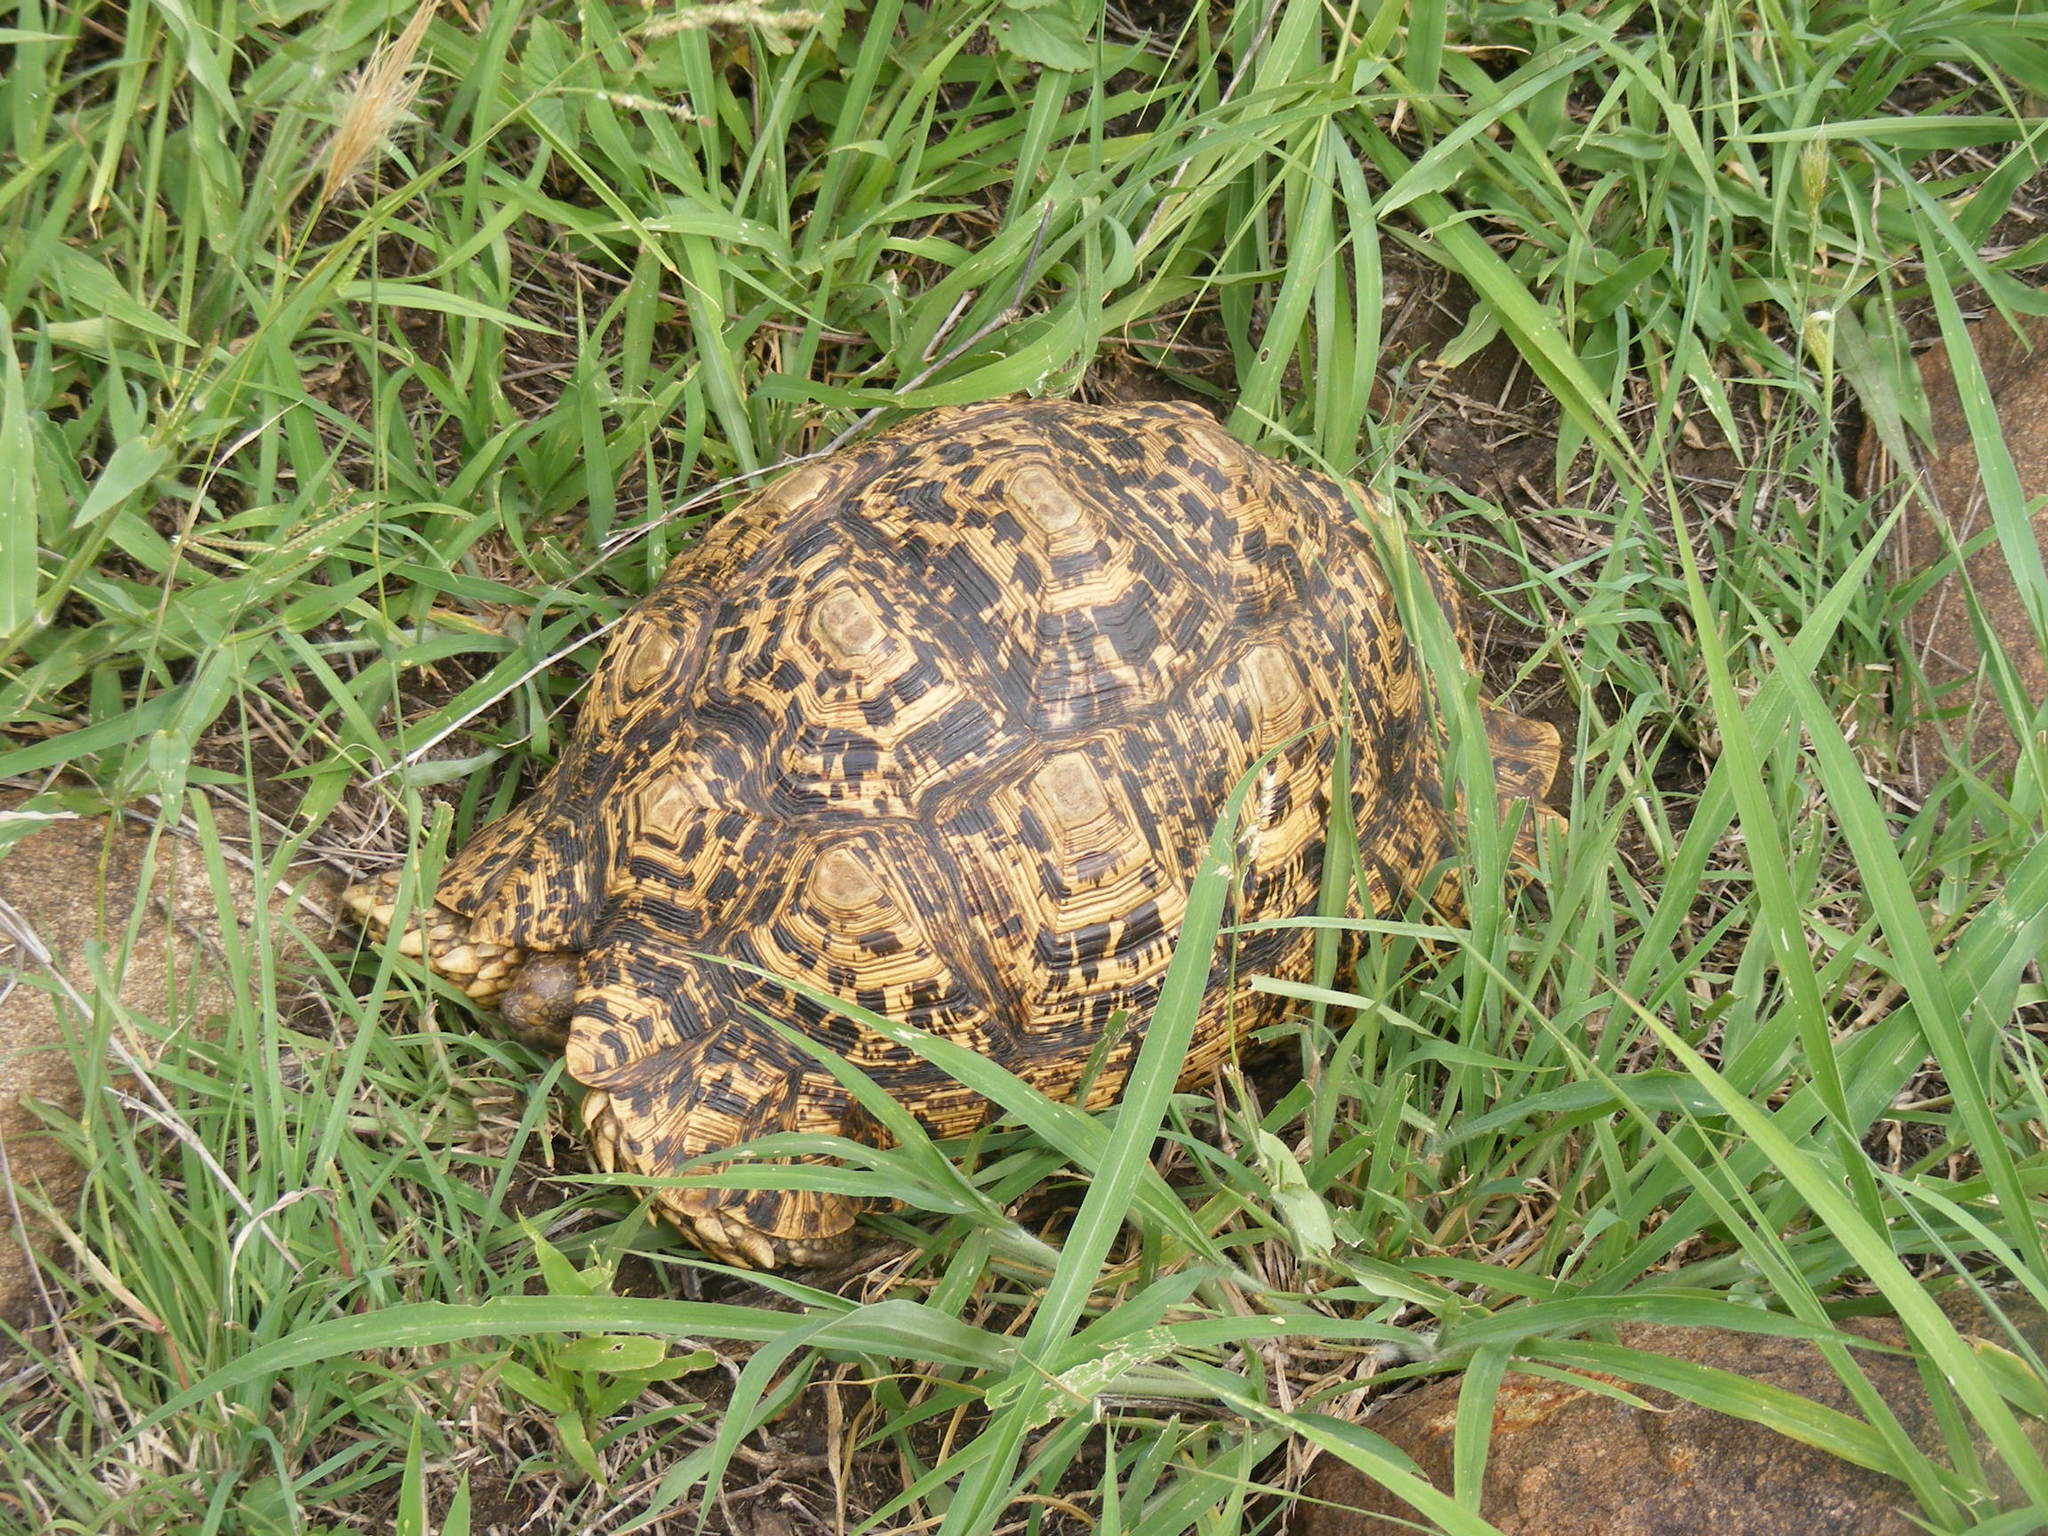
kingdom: Animalia
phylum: Chordata
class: Testudines
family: Testudinidae
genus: Stigmochelys
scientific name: Stigmochelys pardalis
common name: Leopard tortoise
